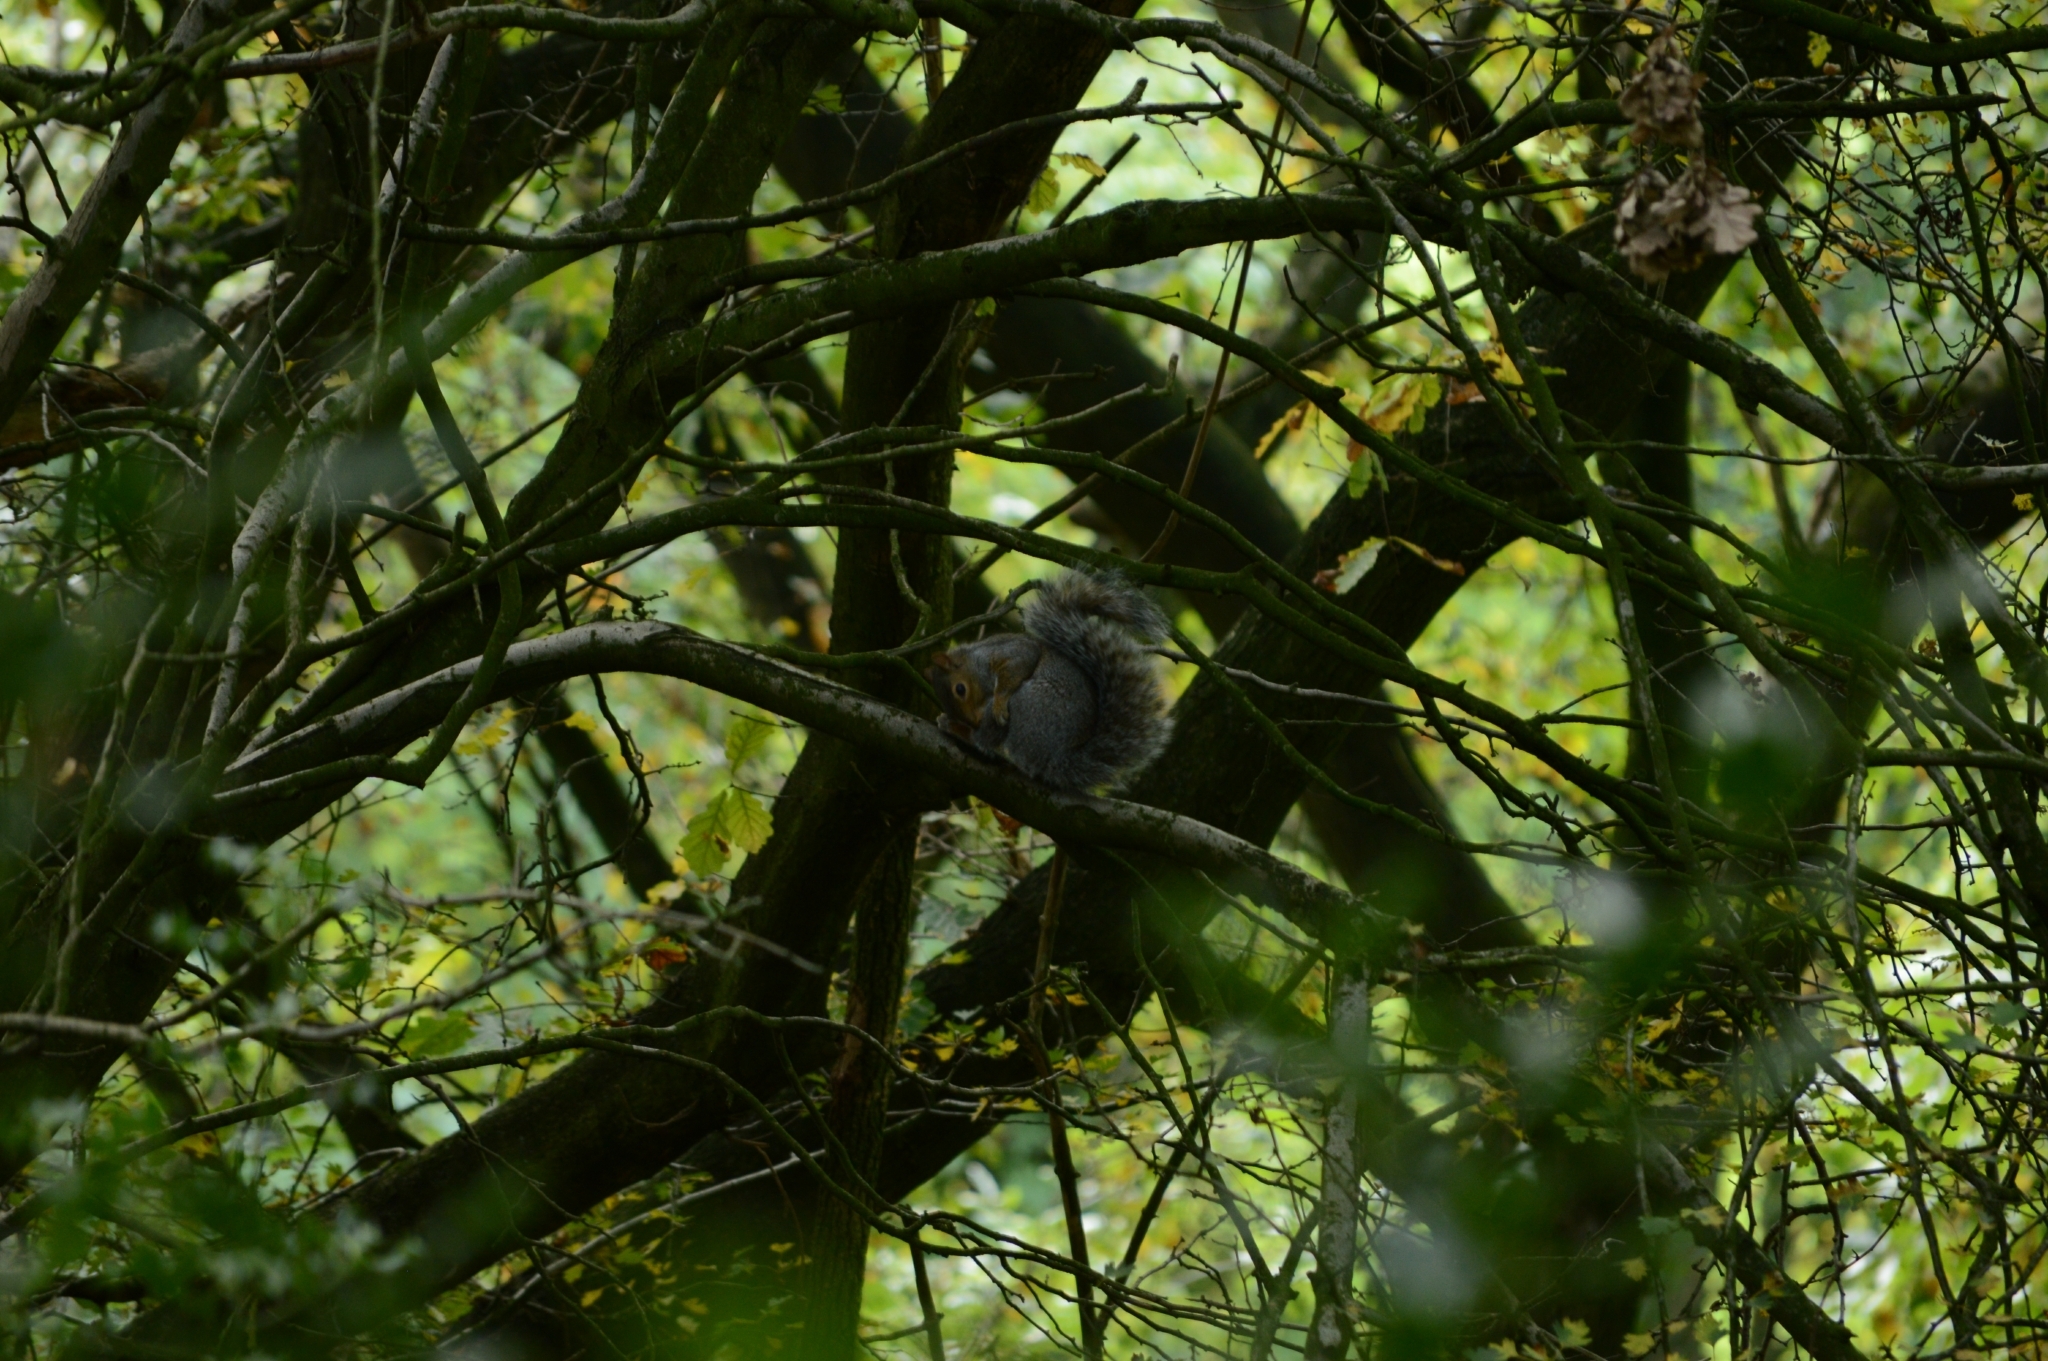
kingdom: Animalia
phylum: Chordata
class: Mammalia
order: Rodentia
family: Sciuridae
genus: Sciurus
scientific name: Sciurus carolinensis
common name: Eastern gray squirrel
